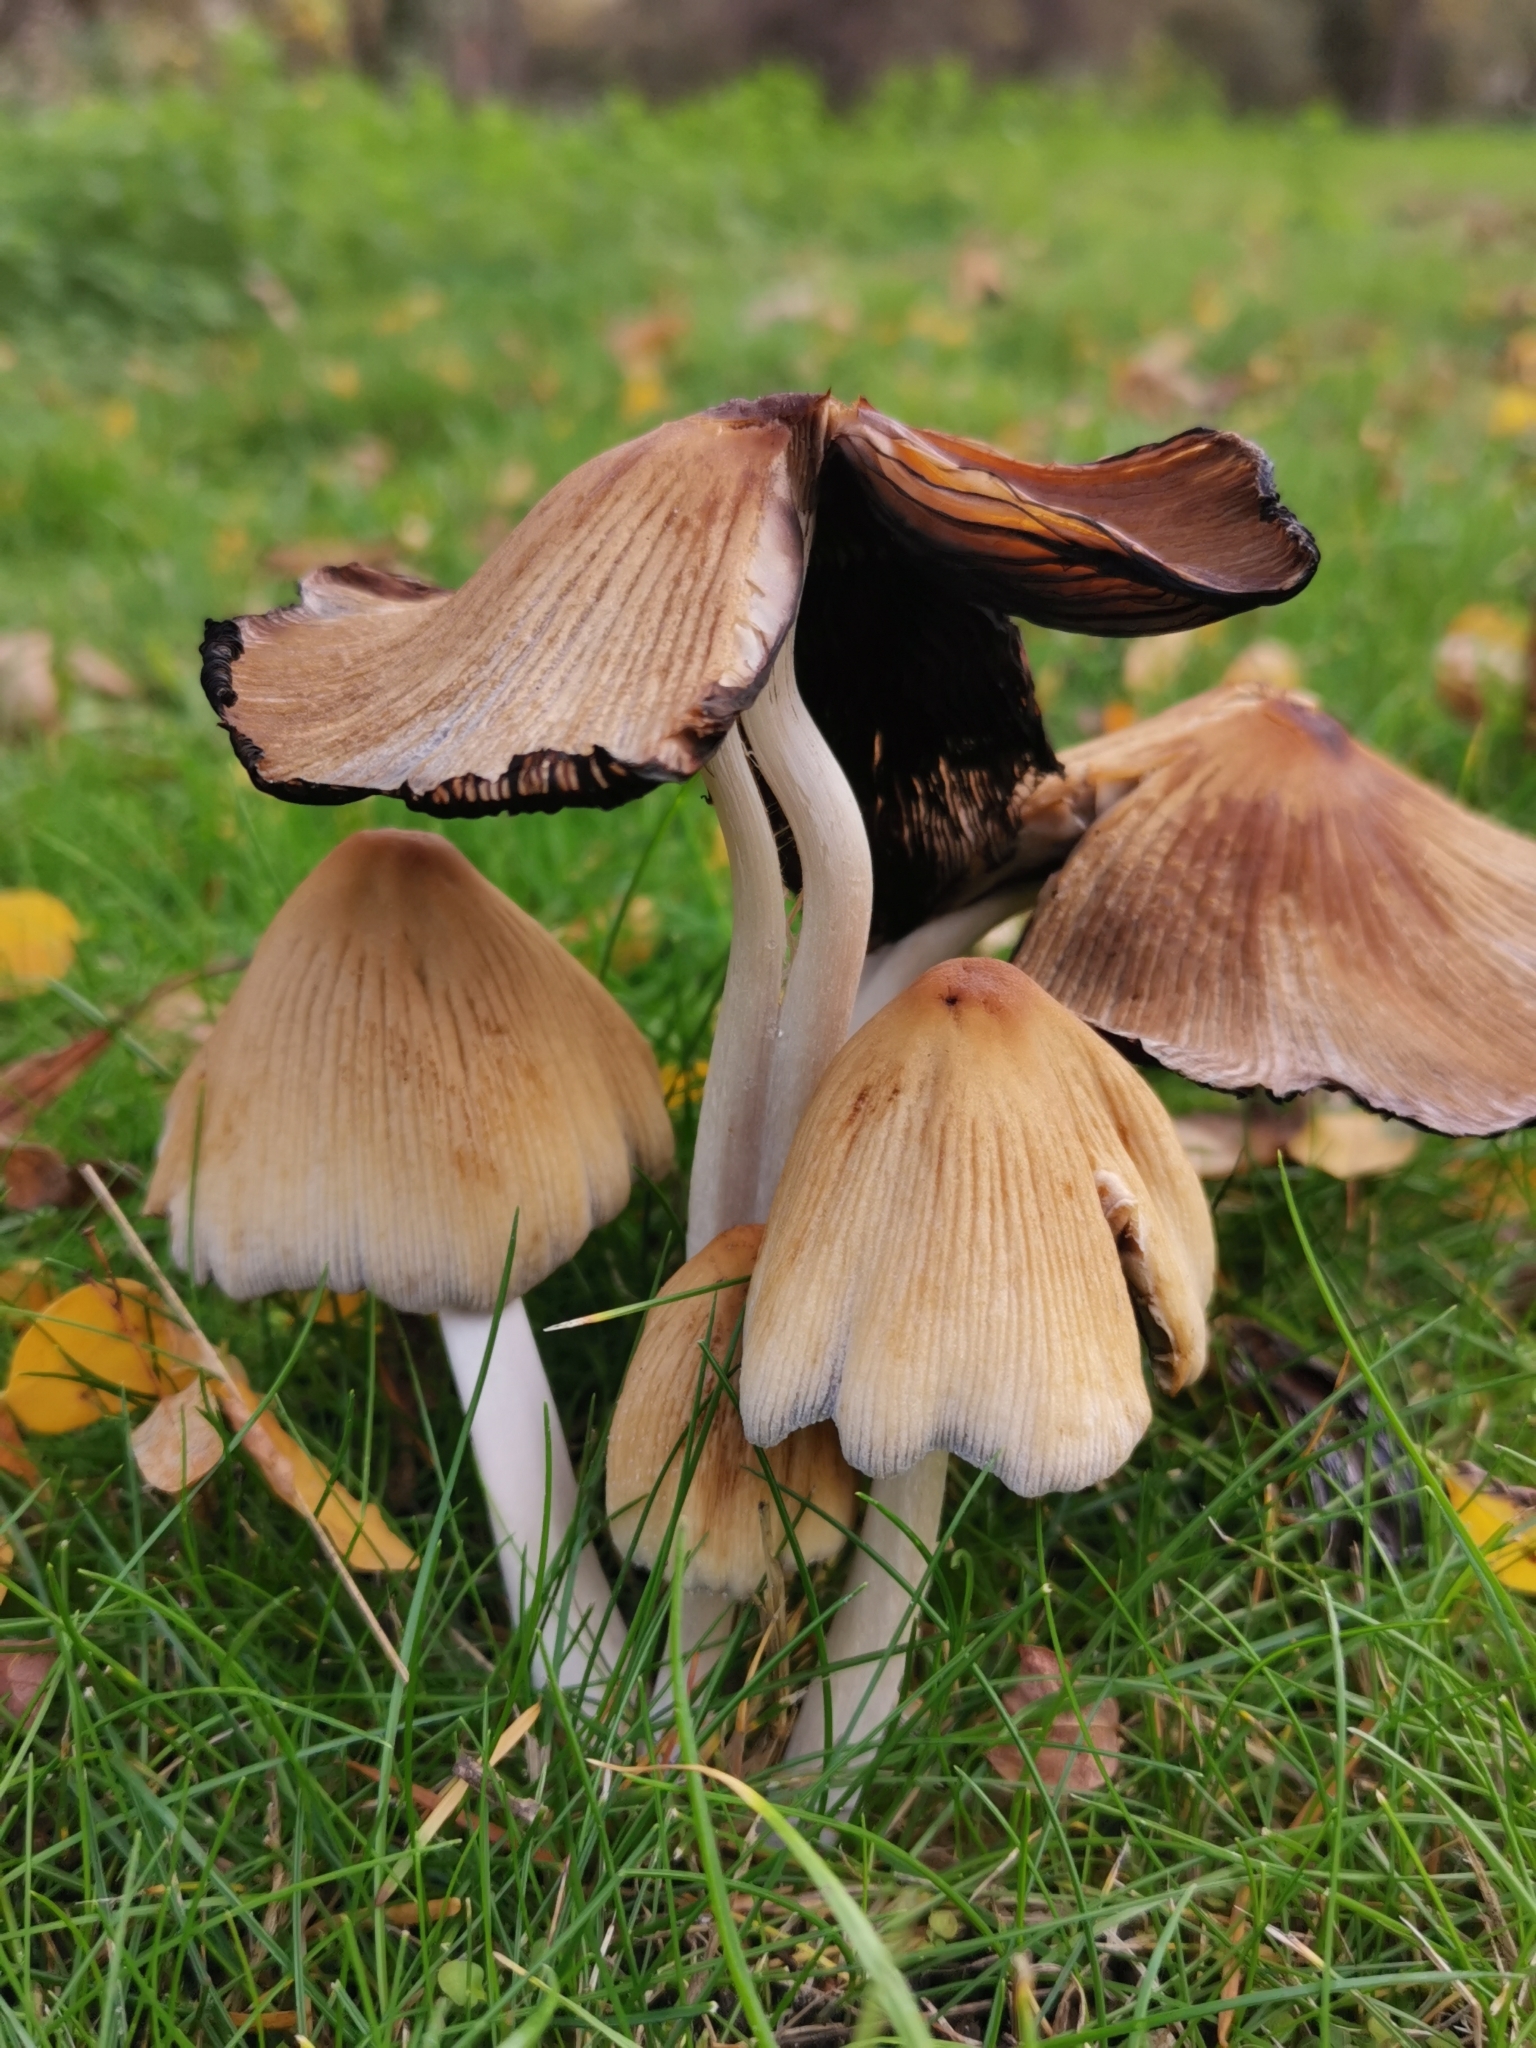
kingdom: Fungi
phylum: Basidiomycota
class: Agaricomycetes
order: Agaricales
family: Psathyrellaceae
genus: Coprinellus
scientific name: Coprinellus micaceus
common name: Glistening ink-cap
